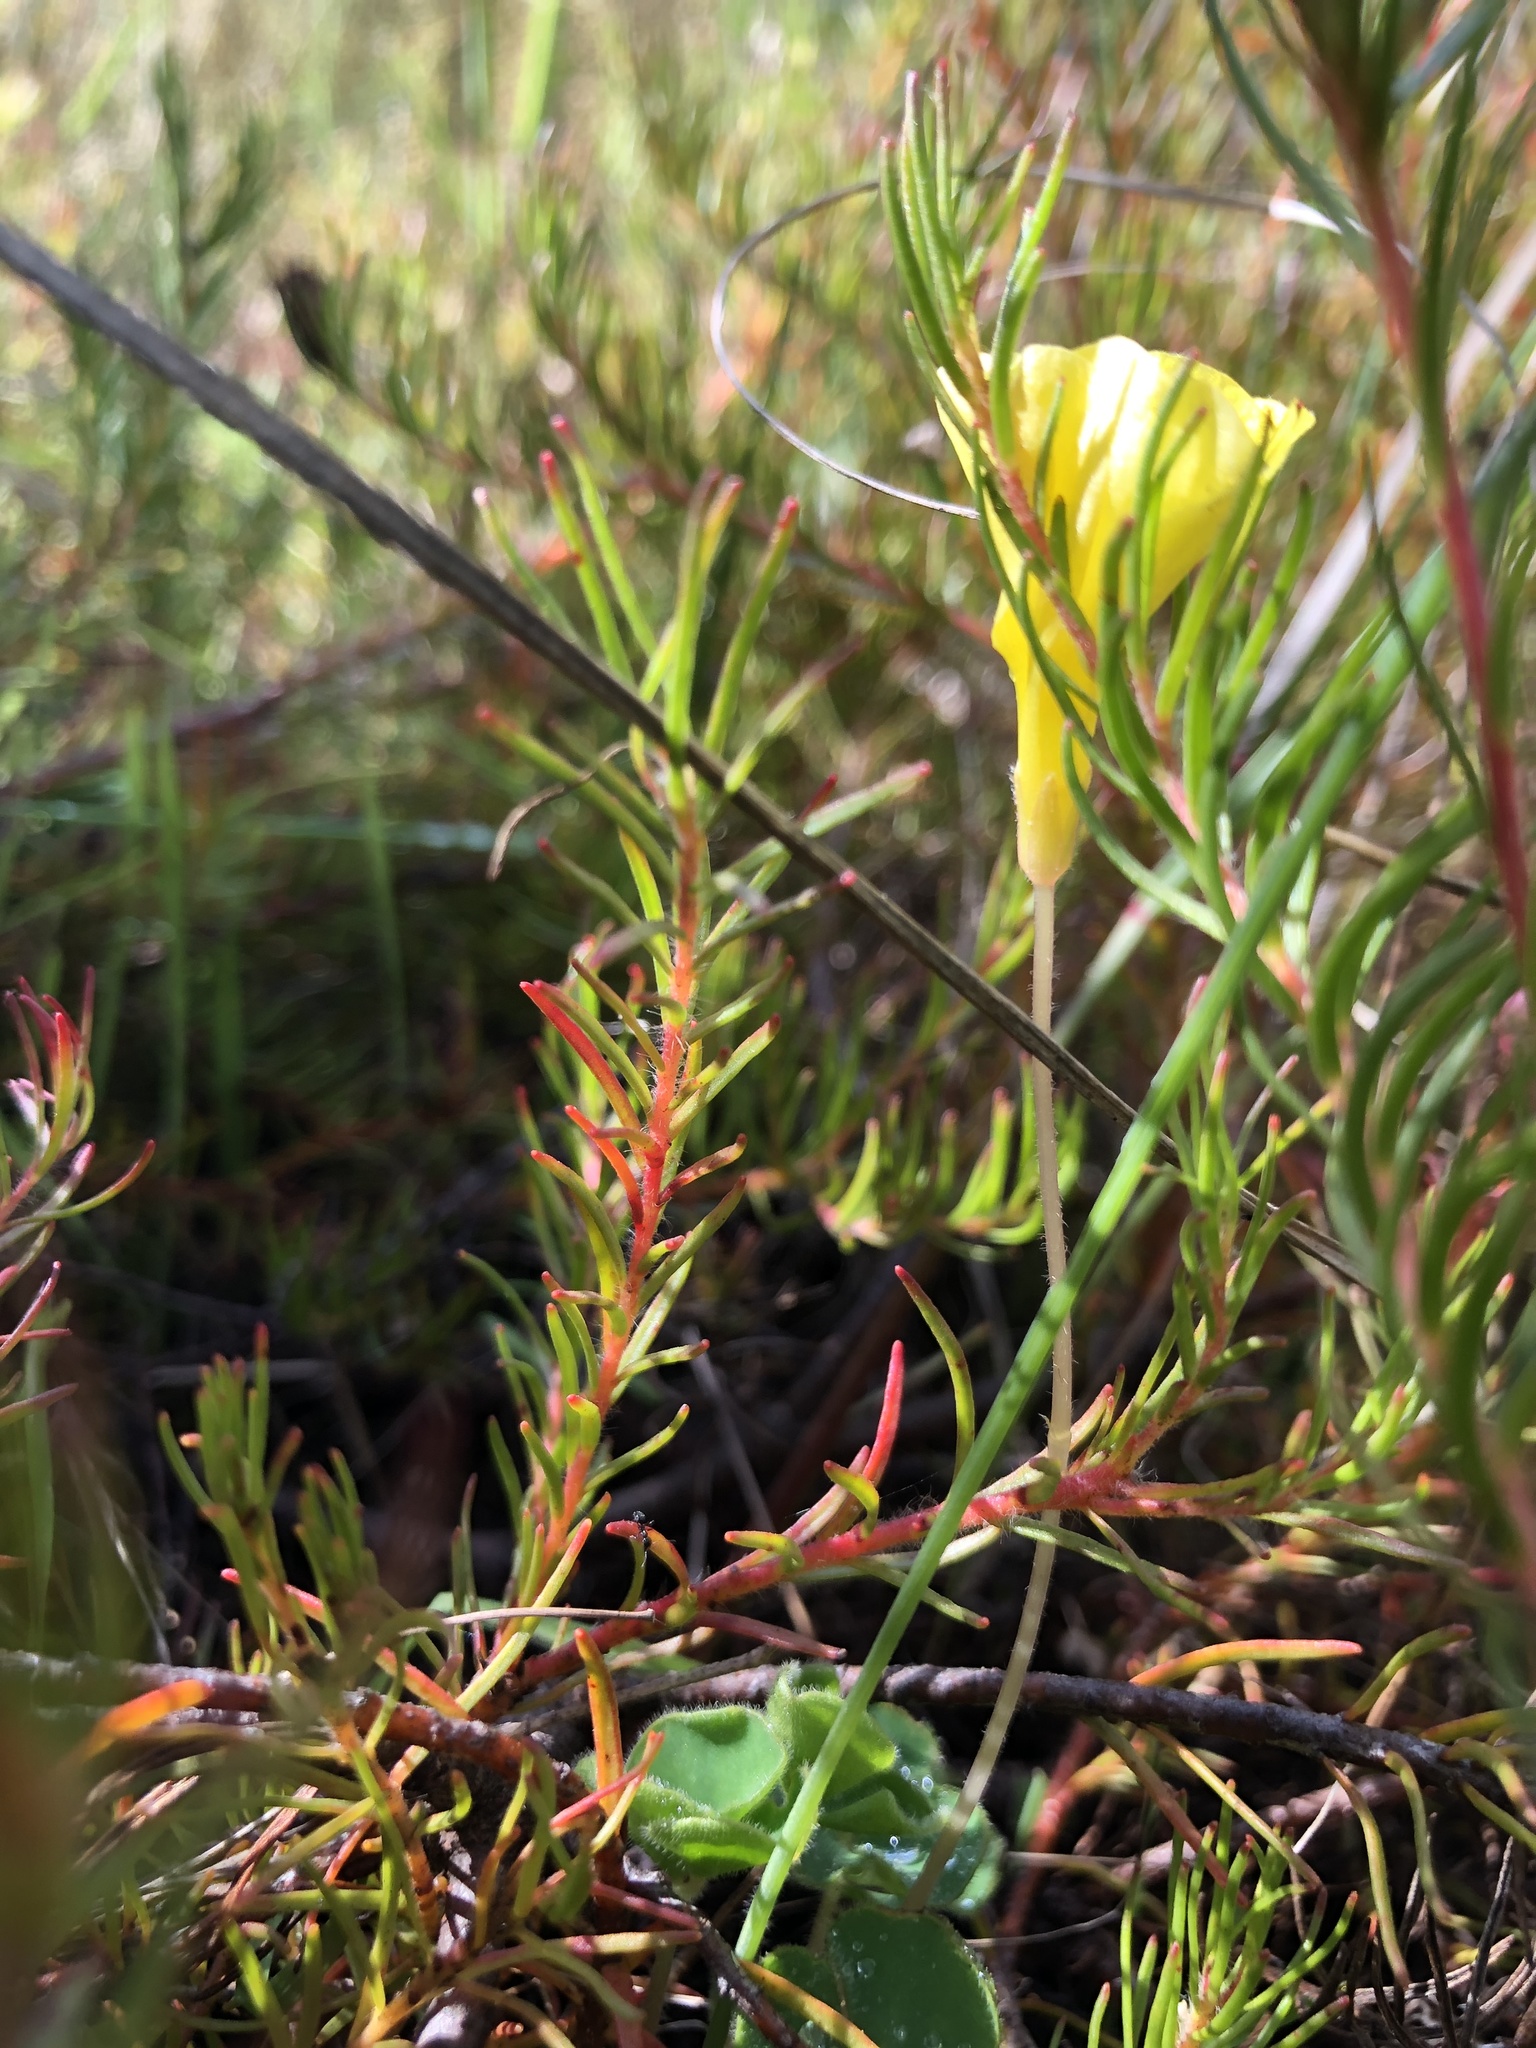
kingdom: Plantae
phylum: Tracheophyta
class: Magnoliopsida
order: Oxalidales
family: Oxalidaceae
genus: Oxalis
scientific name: Oxalis luteola
